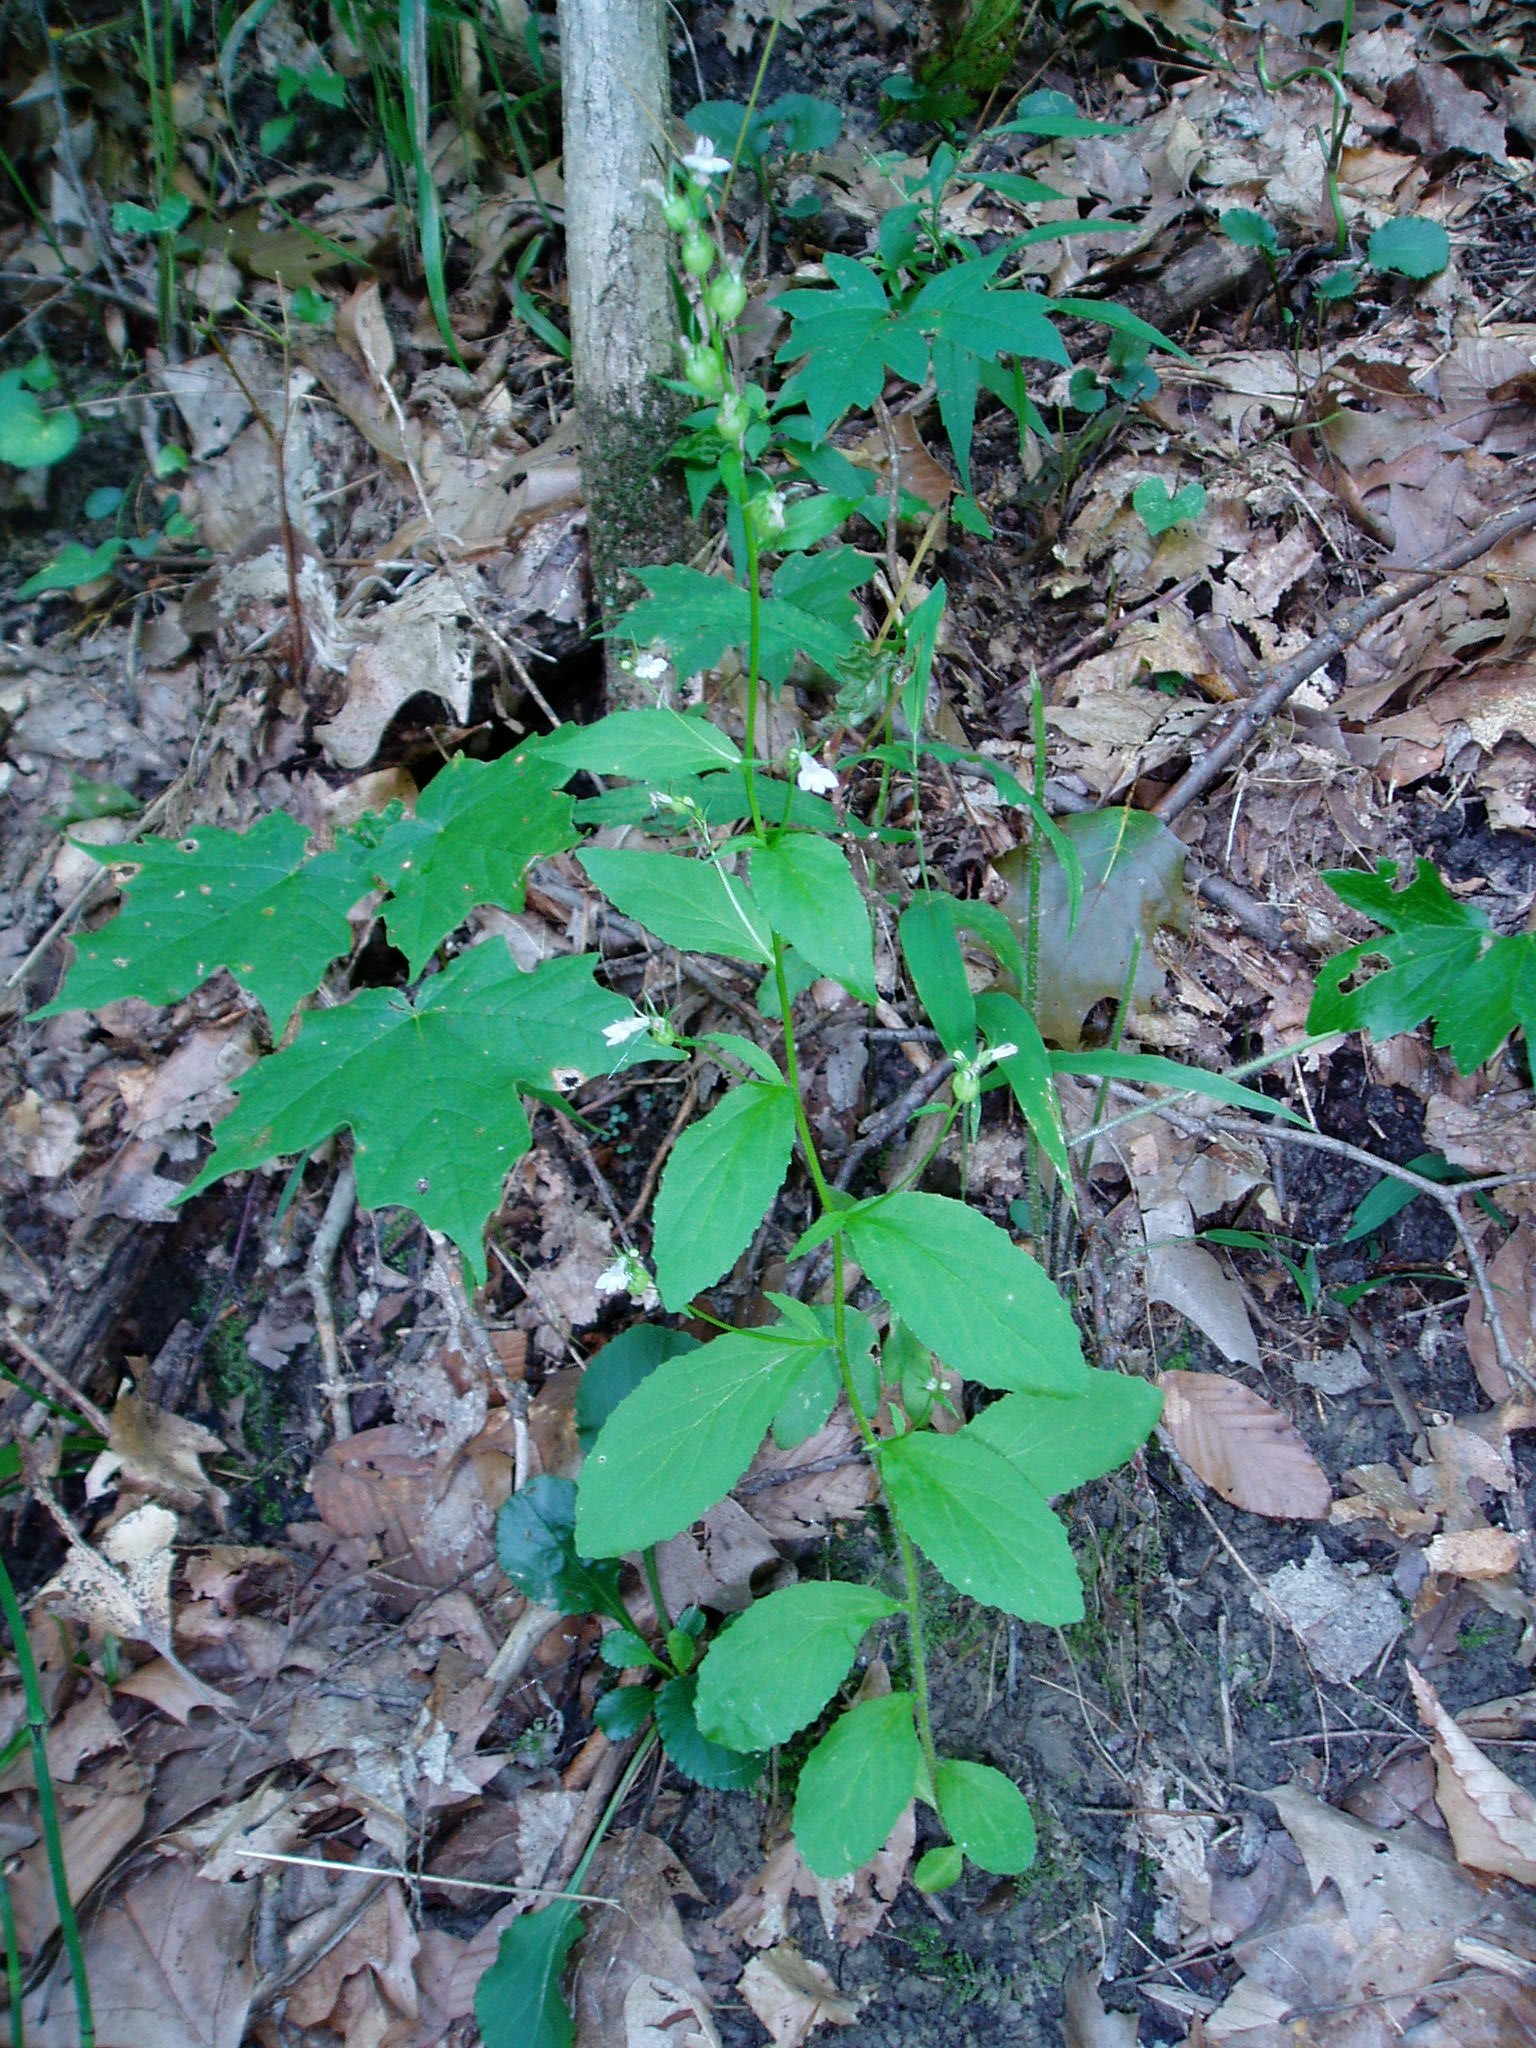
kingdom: Plantae
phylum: Tracheophyta
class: Magnoliopsida
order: Asterales
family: Campanulaceae
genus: Lobelia
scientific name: Lobelia inflata
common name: Indian tobacco
